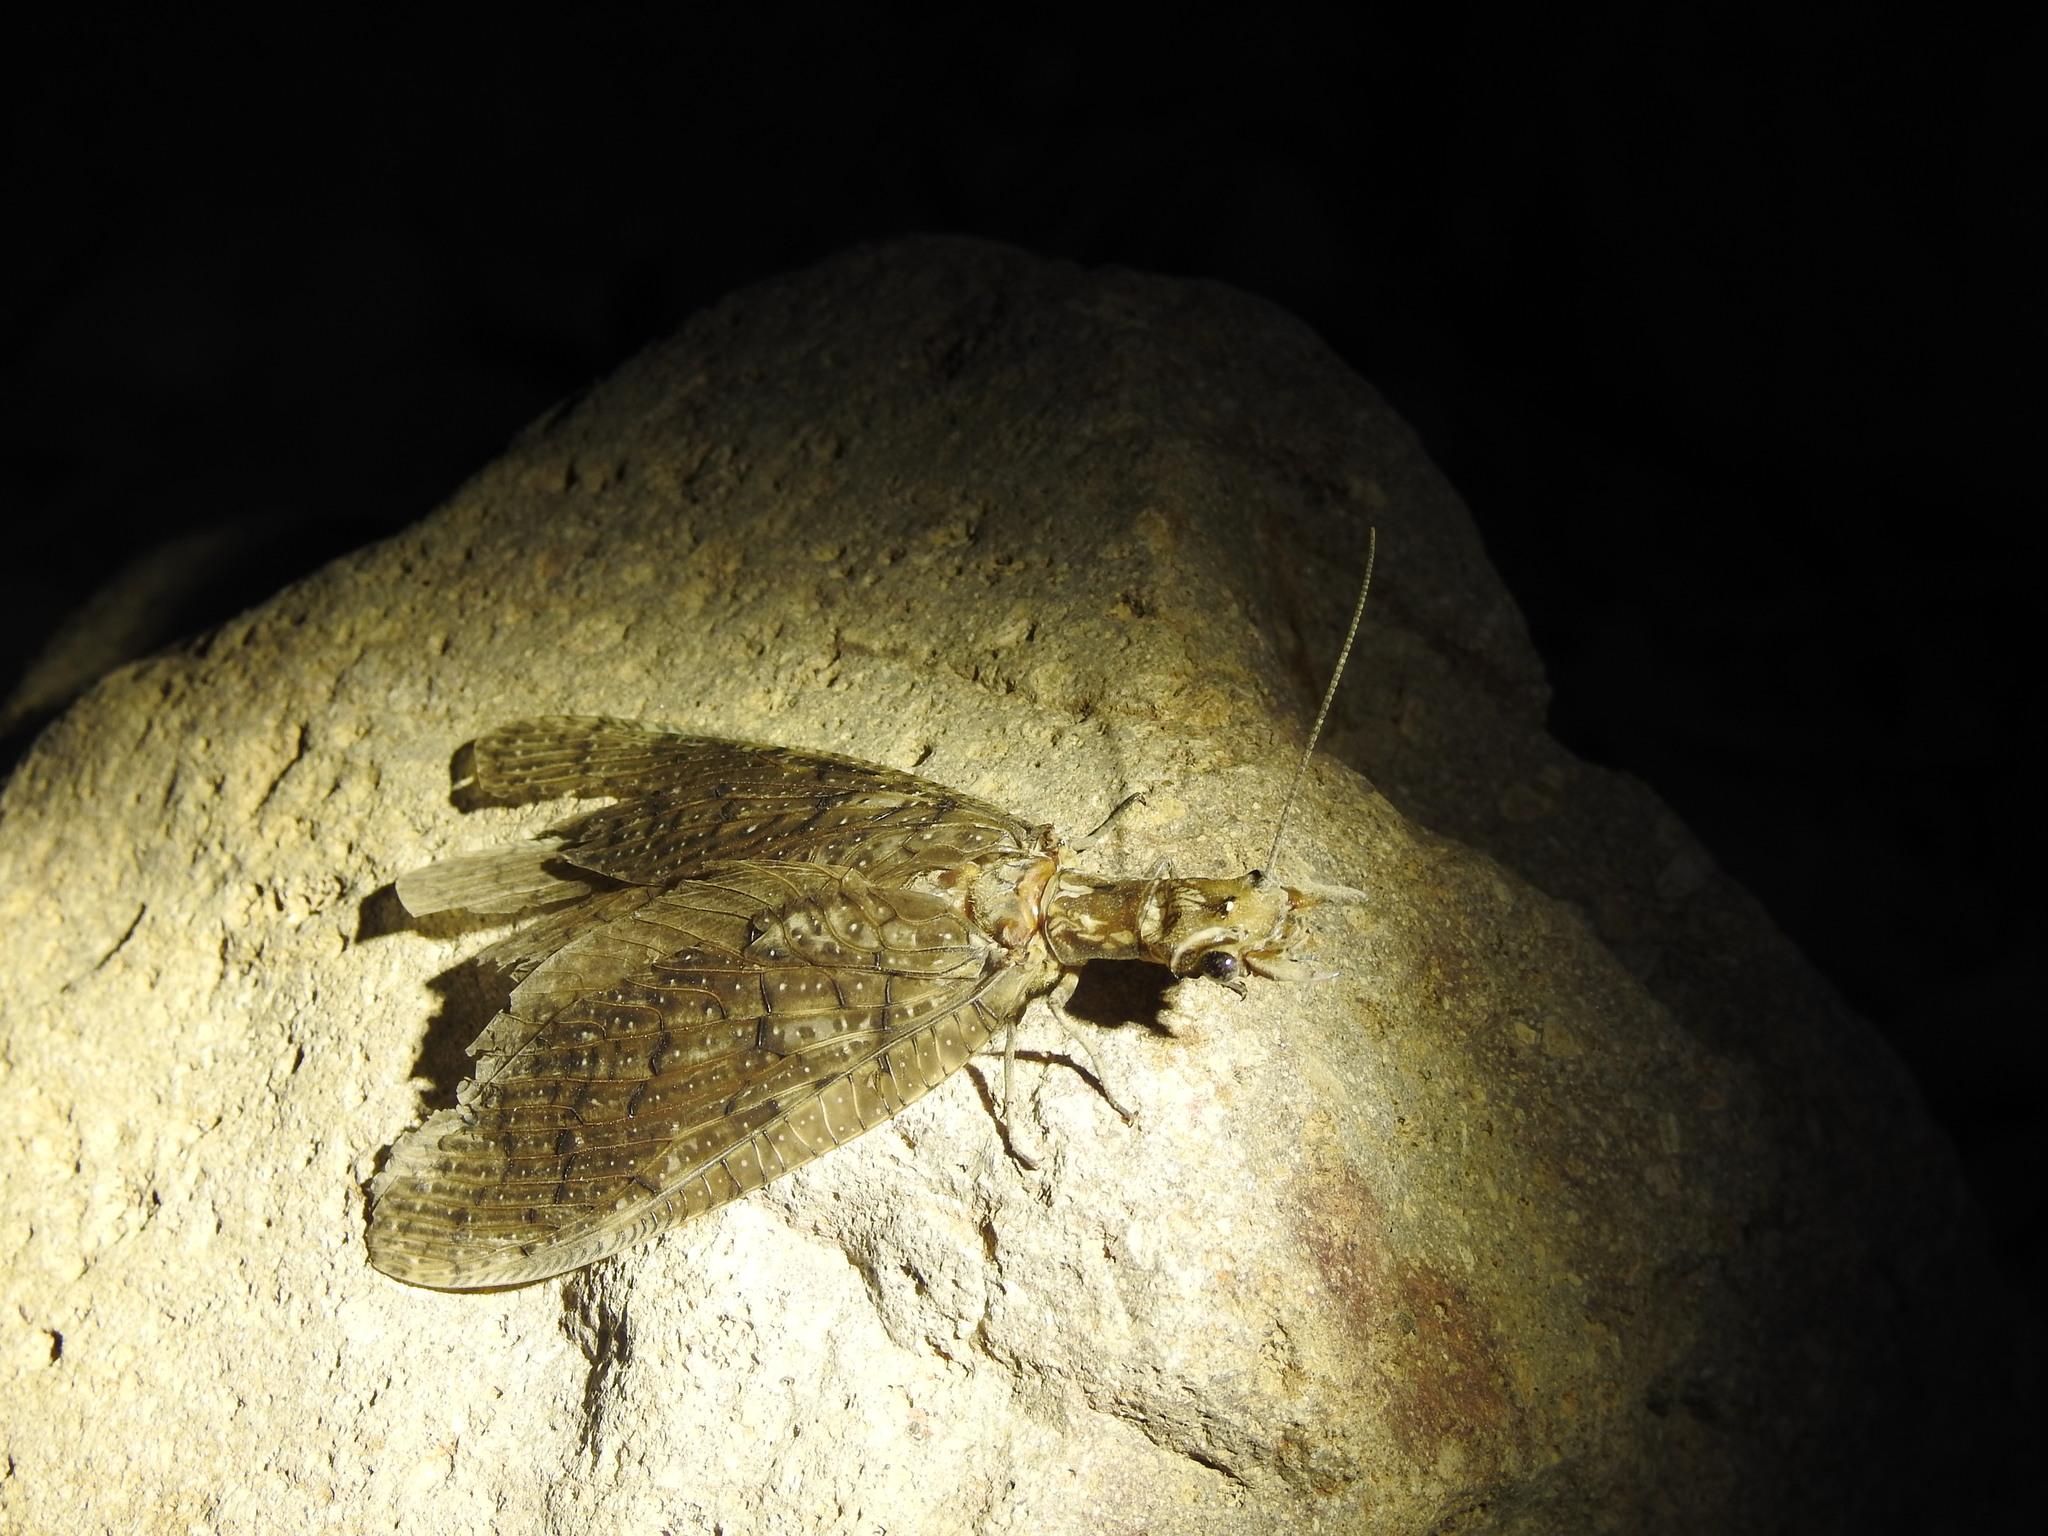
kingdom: Animalia
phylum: Arthropoda
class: Insecta
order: Megaloptera
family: Corydalidae
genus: Corydalus
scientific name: Corydalus texanus
